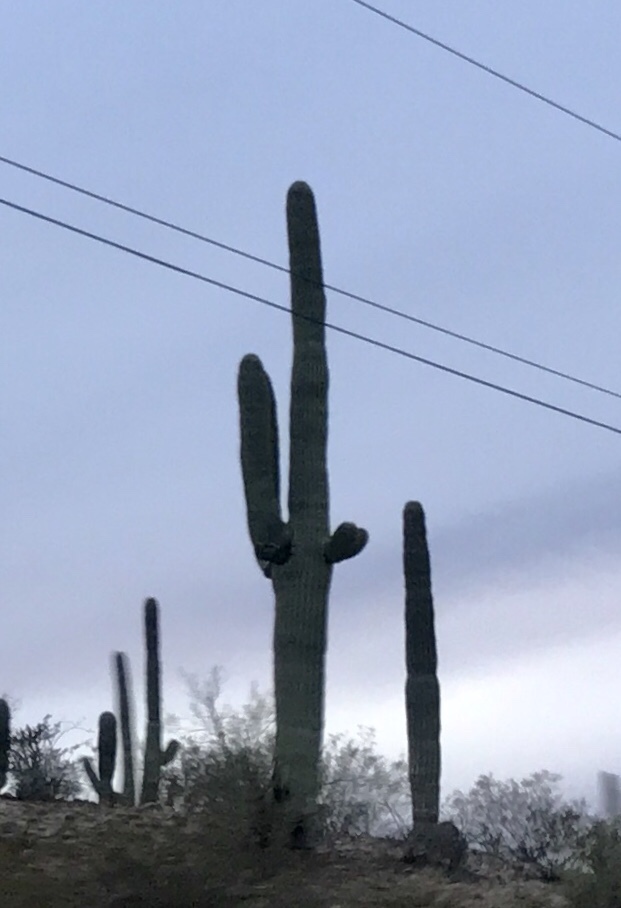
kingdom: Plantae
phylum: Tracheophyta
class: Magnoliopsida
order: Caryophyllales
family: Cactaceae
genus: Carnegiea
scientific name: Carnegiea gigantea
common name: Saguaro
